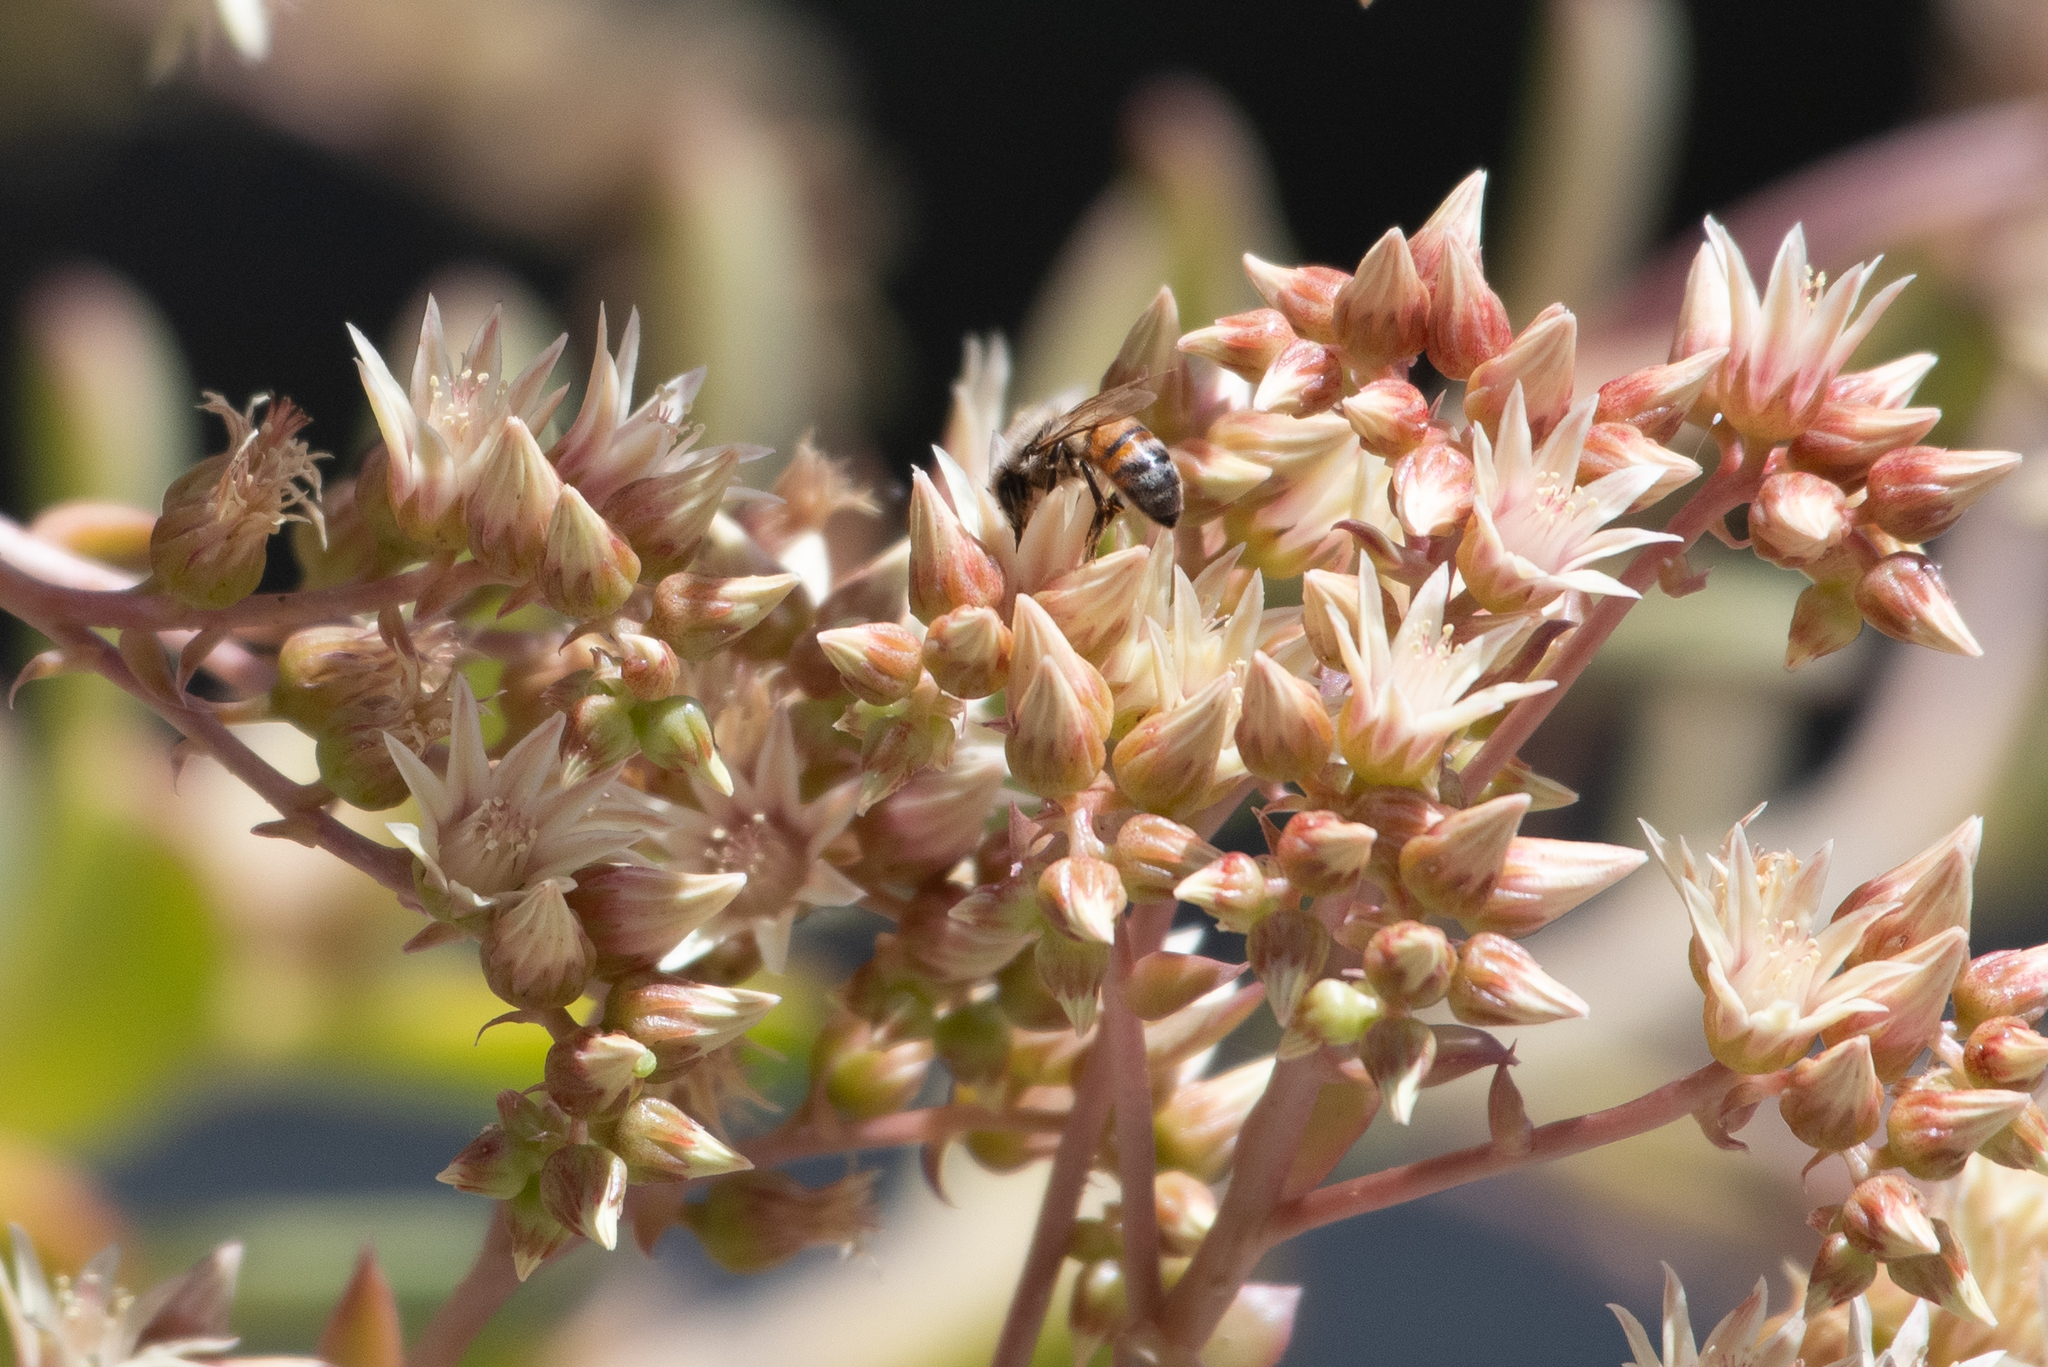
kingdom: Animalia
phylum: Arthropoda
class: Insecta
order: Hymenoptera
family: Apidae
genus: Apis
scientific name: Apis mellifera
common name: Honey bee
